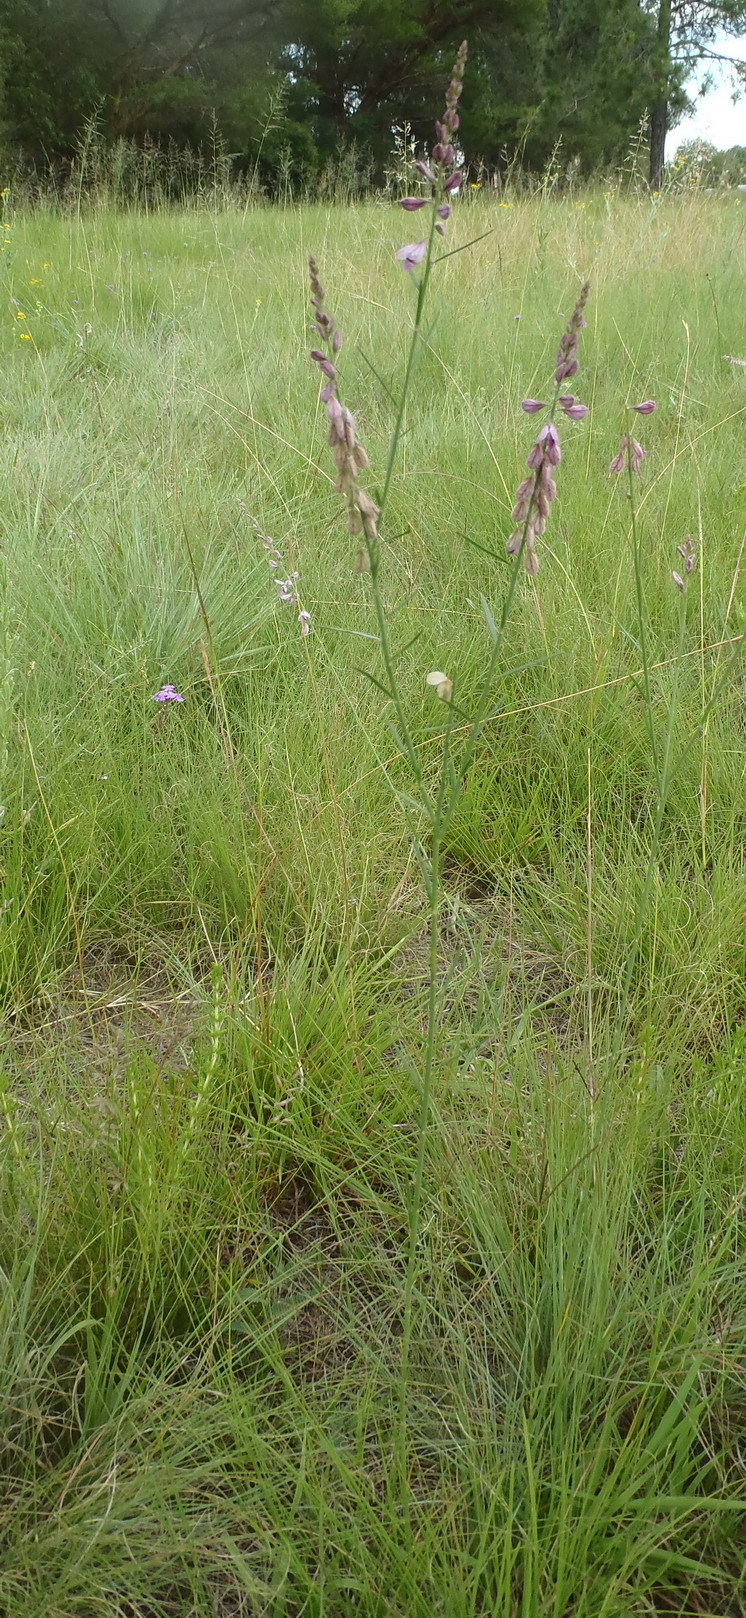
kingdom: Plantae
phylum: Tracheophyta
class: Magnoliopsida
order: Fabales
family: Polygalaceae
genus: Polygala
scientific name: Polygala hottentotta
